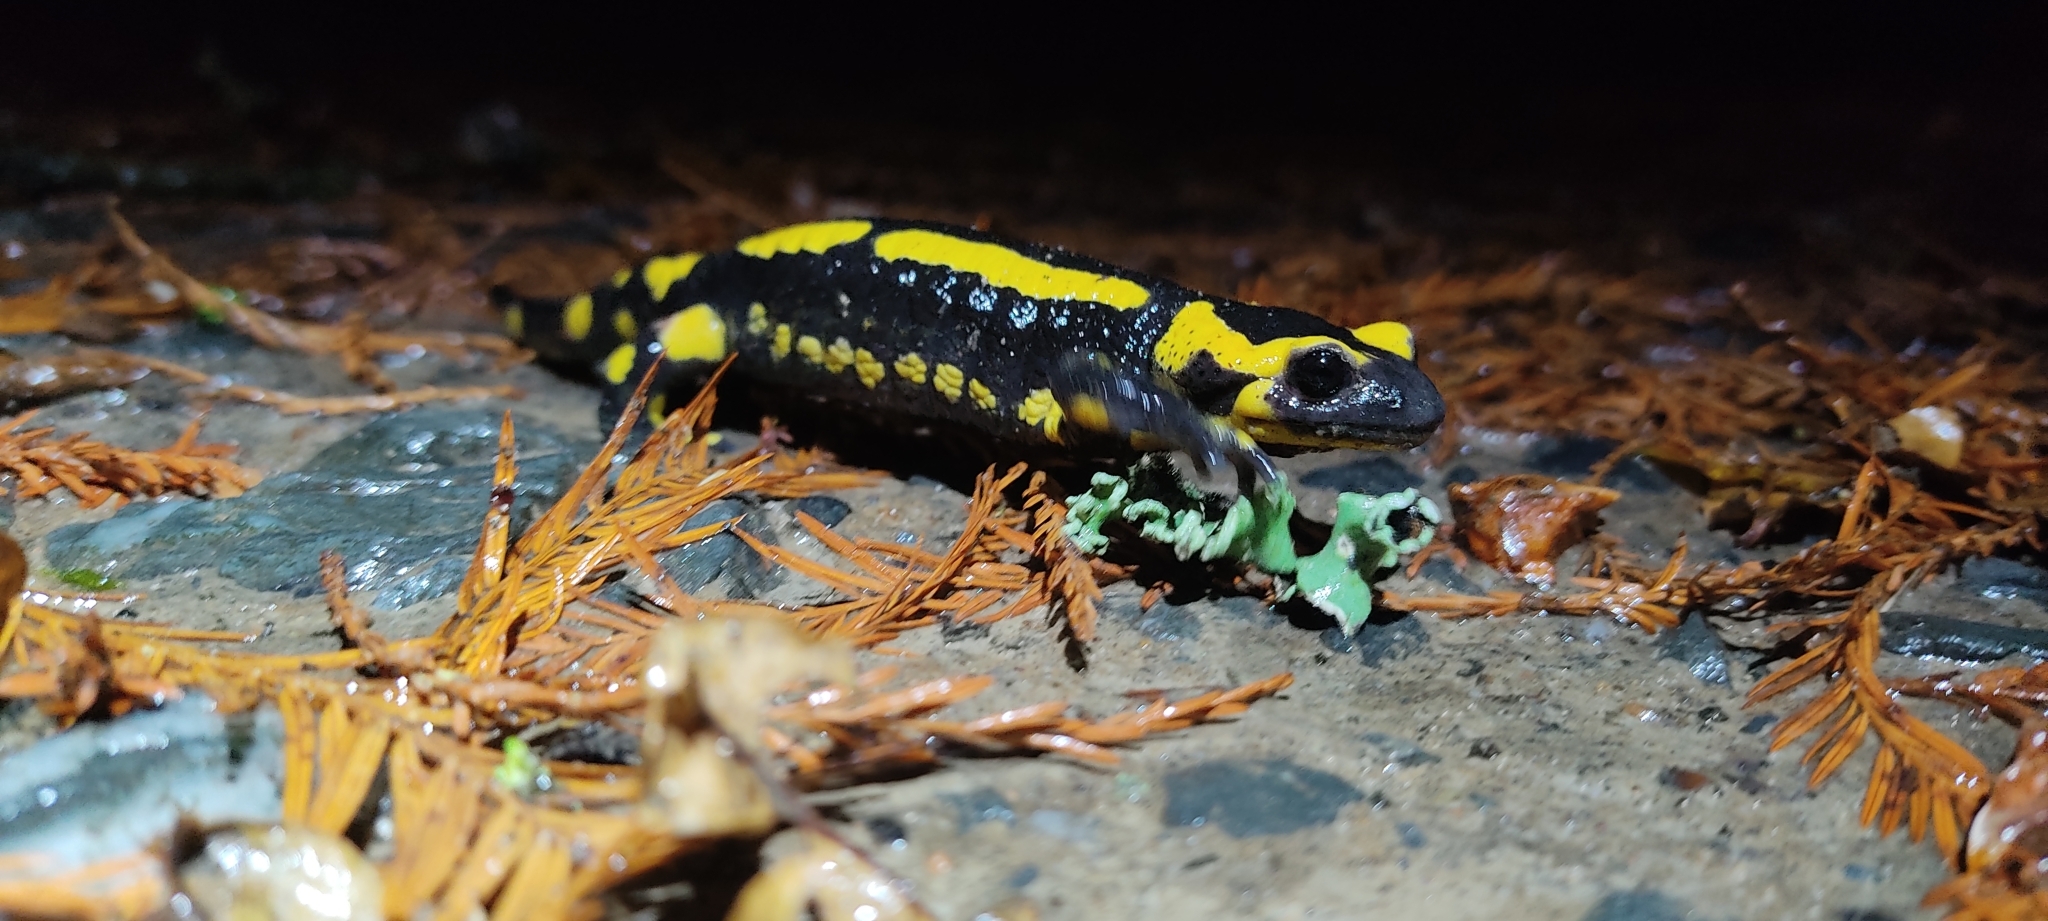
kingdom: Animalia
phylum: Chordata
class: Amphibia
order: Caudata
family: Salamandridae
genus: Salamandra
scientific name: Salamandra salamandra
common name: Fire salamander
